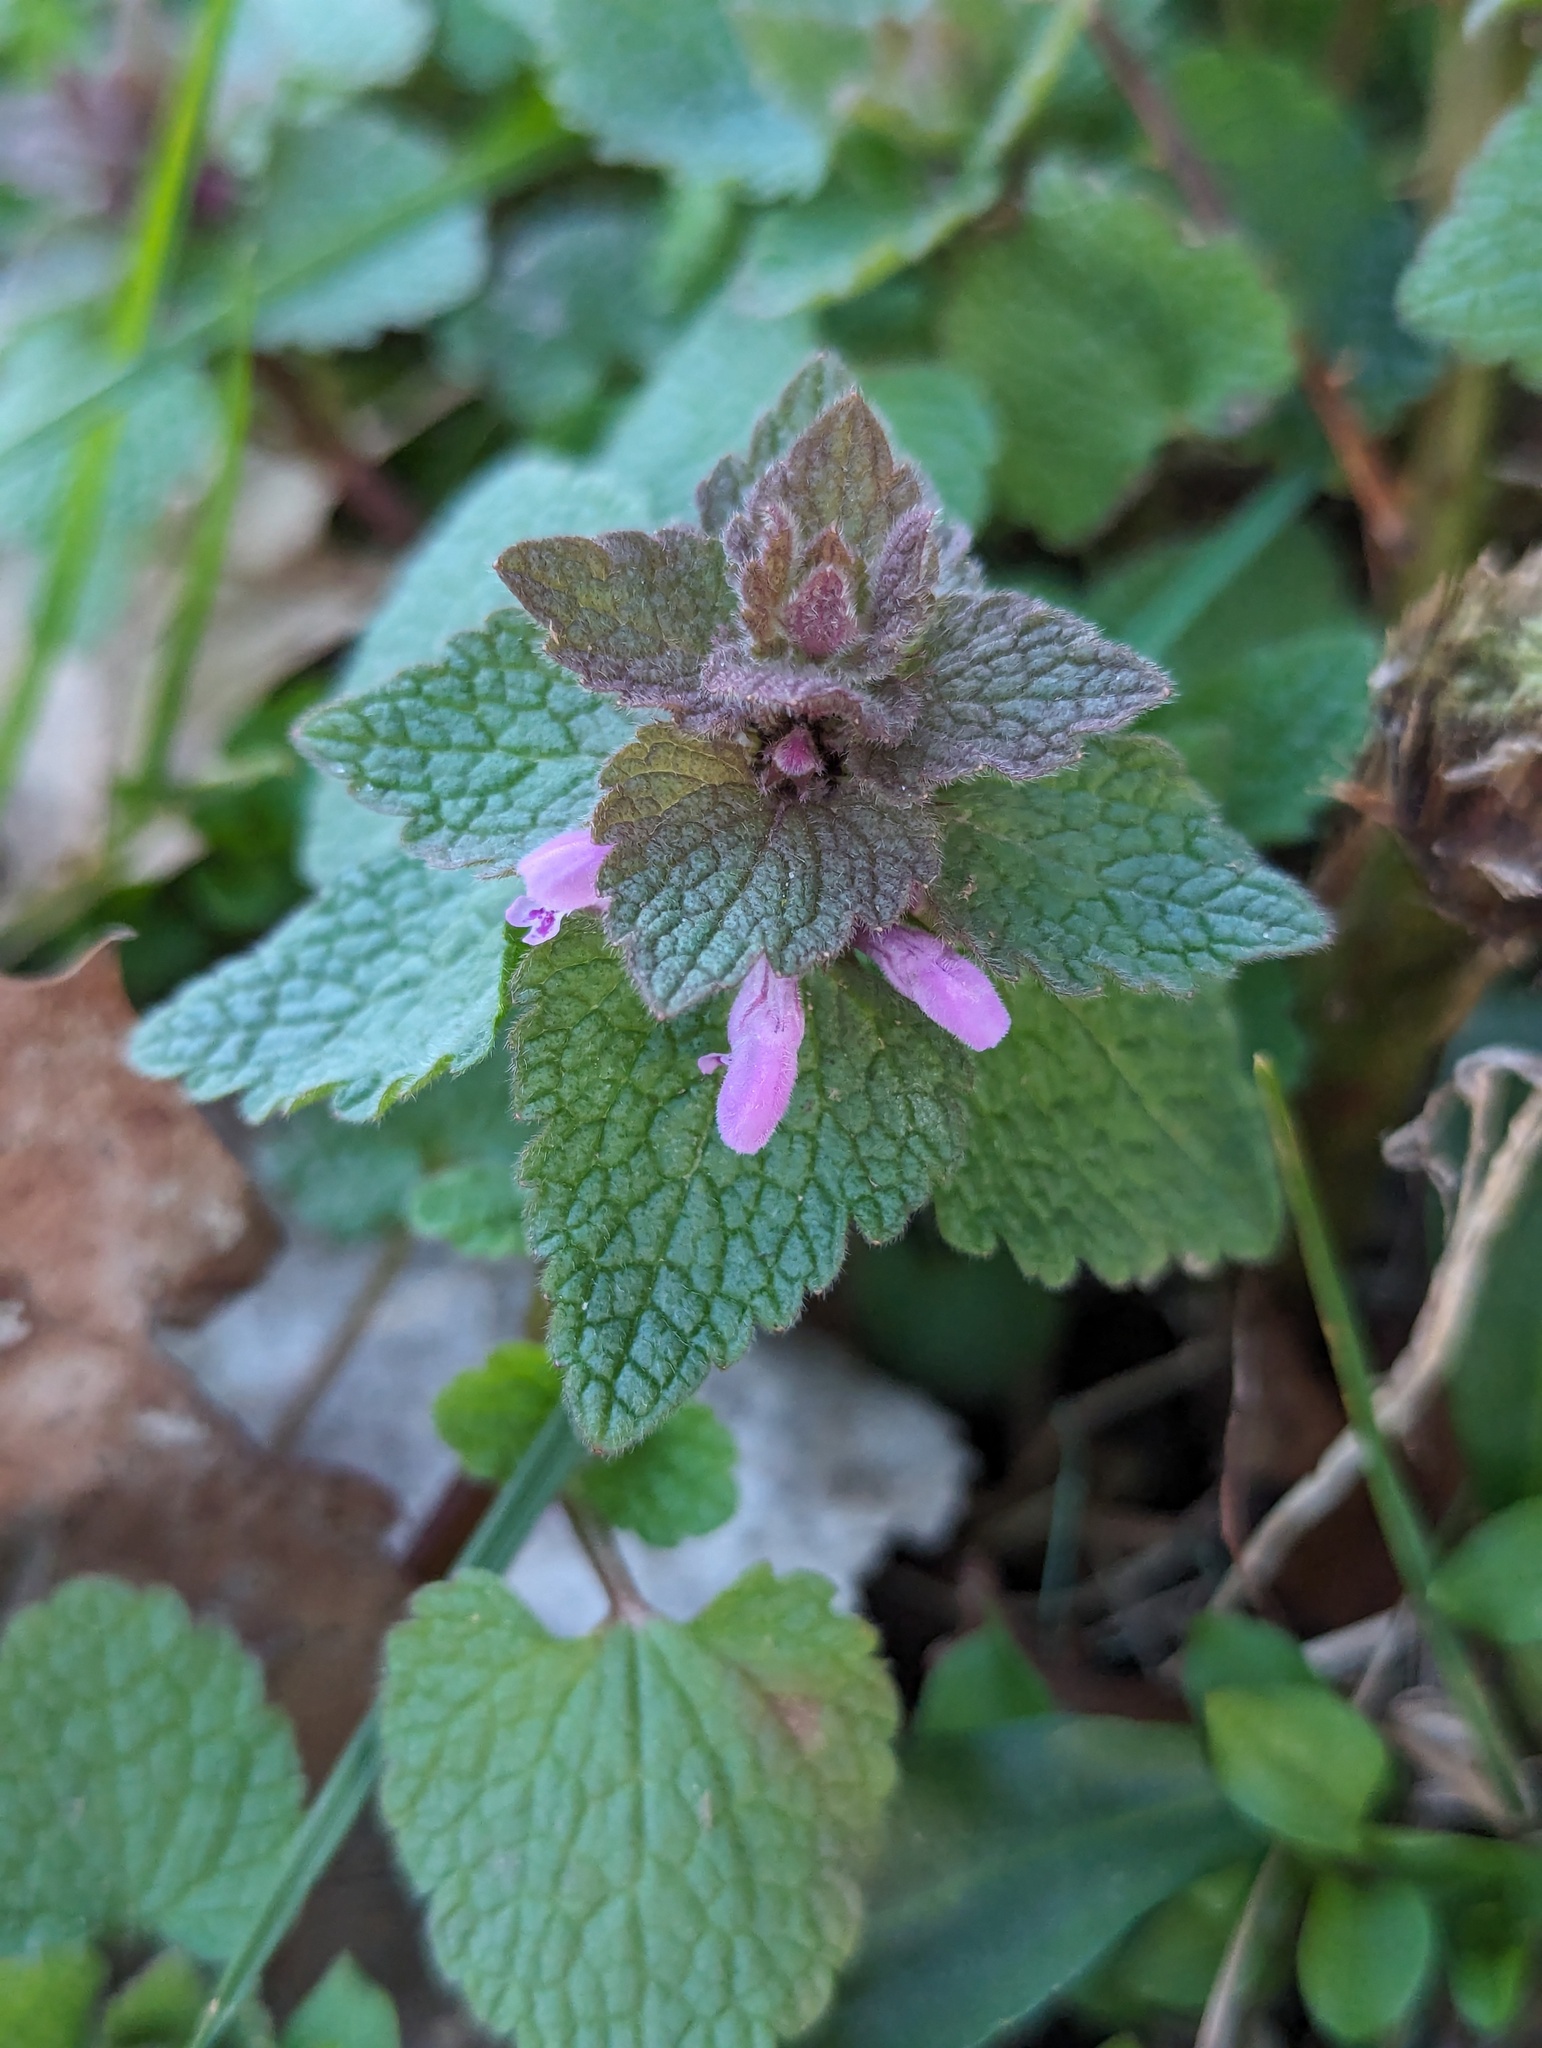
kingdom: Plantae
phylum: Tracheophyta
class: Magnoliopsida
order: Lamiales
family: Lamiaceae
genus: Lamium
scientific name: Lamium purpureum
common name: Red dead-nettle
